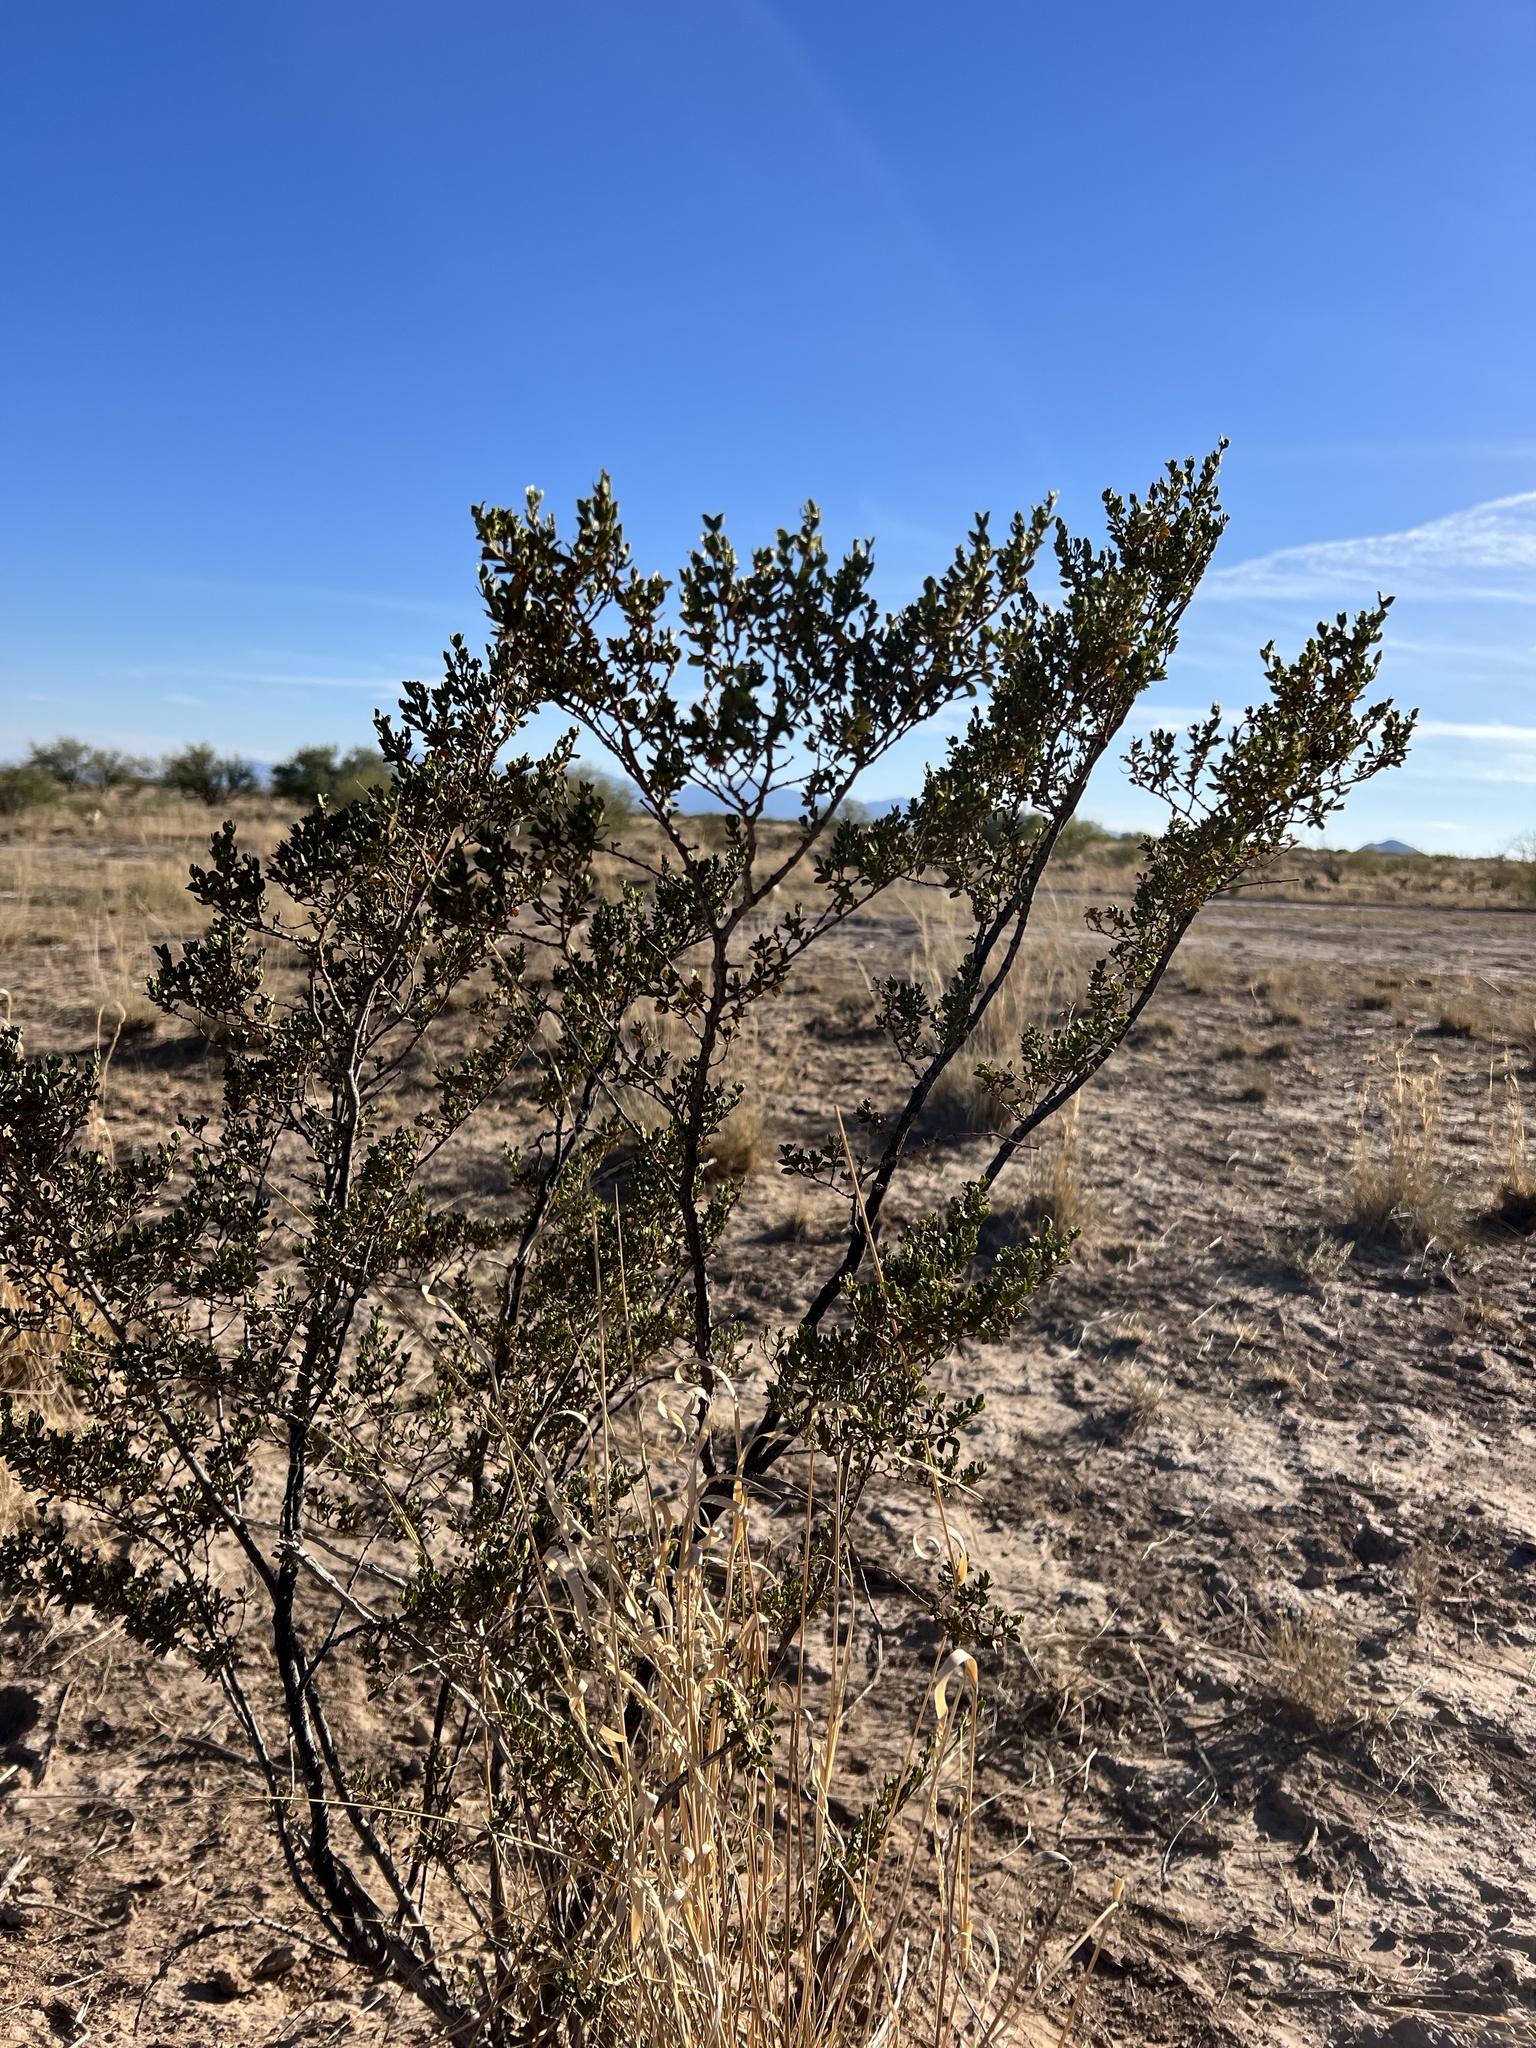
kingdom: Plantae
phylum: Tracheophyta
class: Magnoliopsida
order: Zygophyllales
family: Zygophyllaceae
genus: Larrea
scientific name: Larrea tridentata
